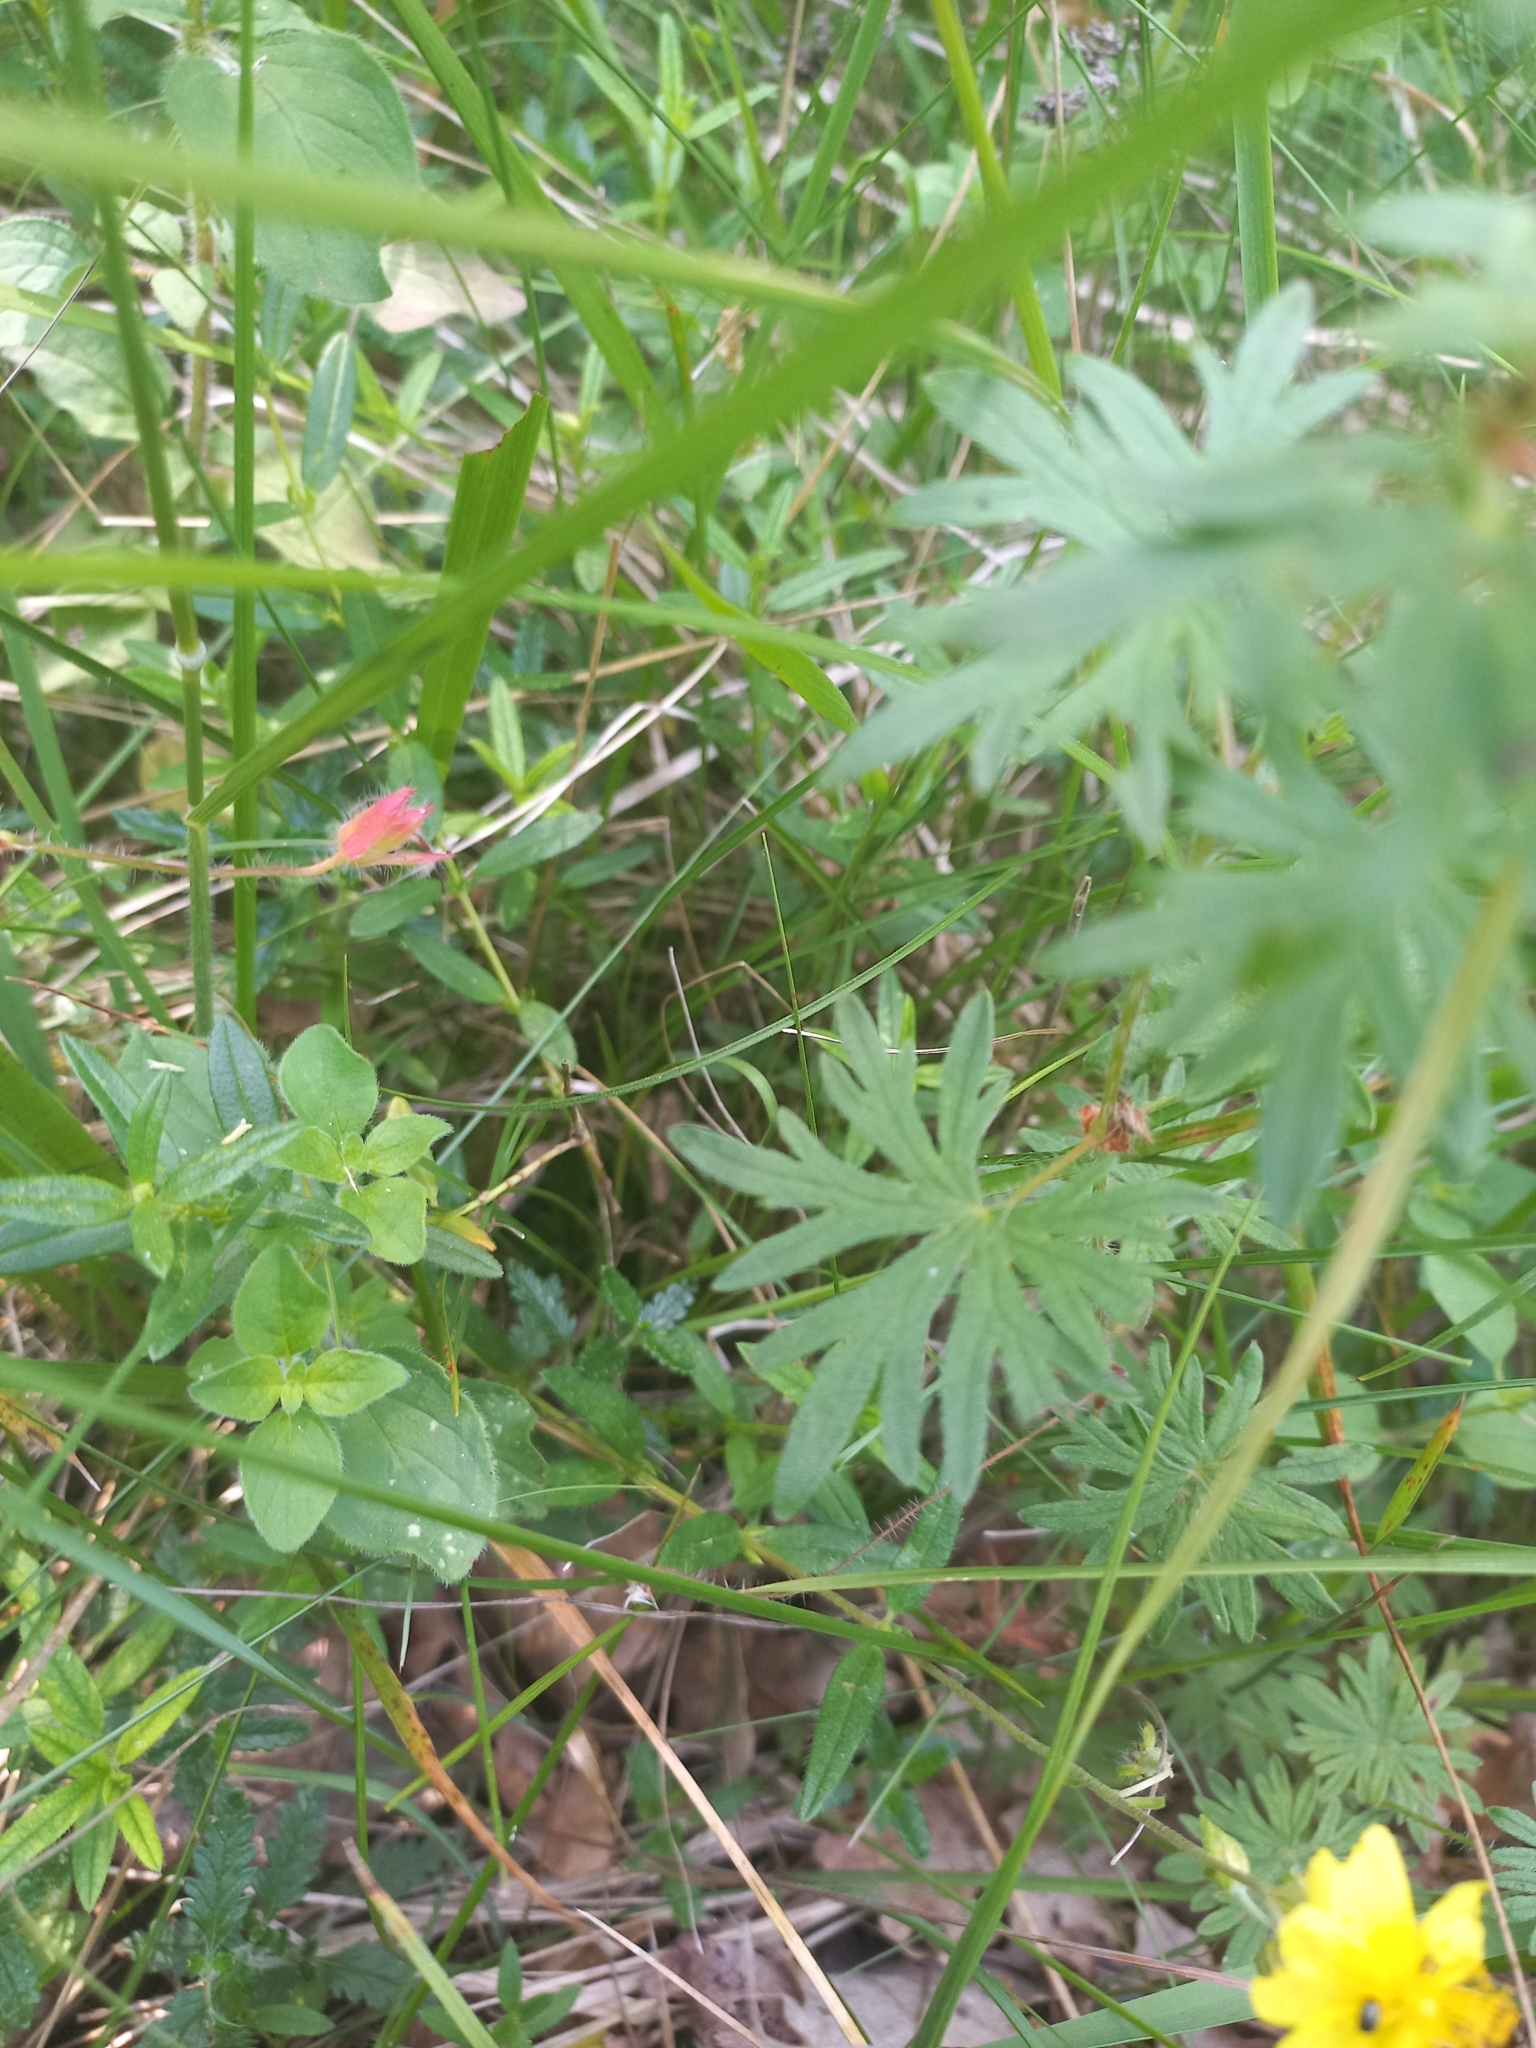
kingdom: Plantae
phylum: Tracheophyta
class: Magnoliopsida
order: Geraniales
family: Geraniaceae
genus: Geranium
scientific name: Geranium sanguineum
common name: Bloody crane's-bill
